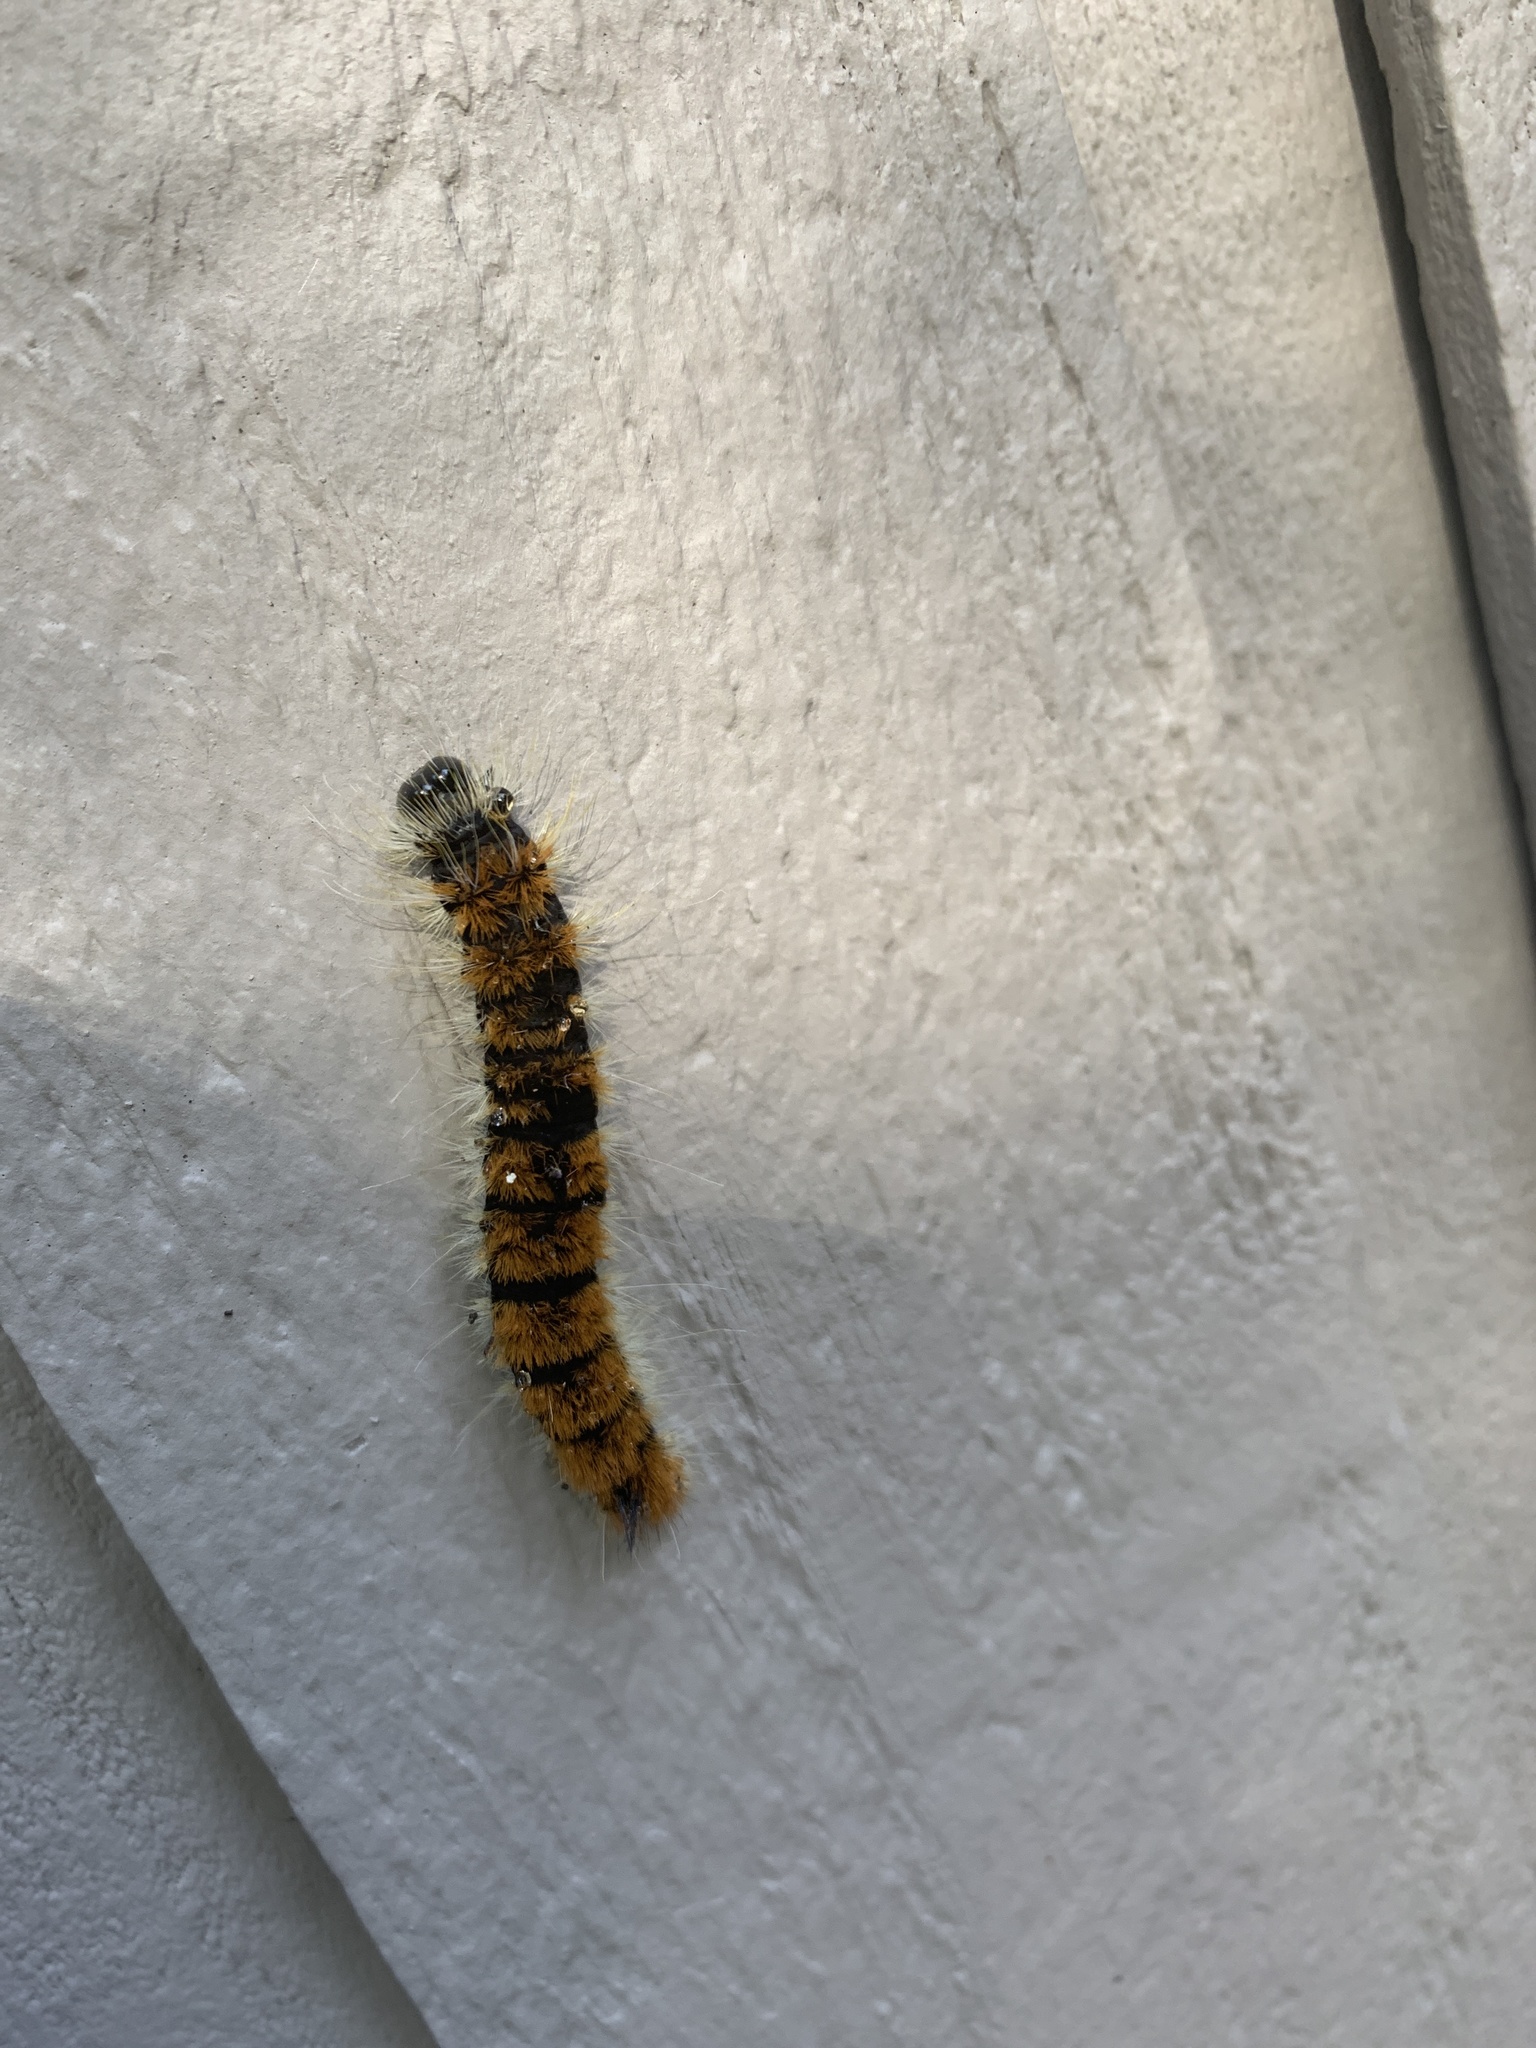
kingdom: Animalia
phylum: Arthropoda
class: Insecta
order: Lepidoptera
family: Noctuidae
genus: Acronicta
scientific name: Acronicta insita
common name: Large gray dagger
